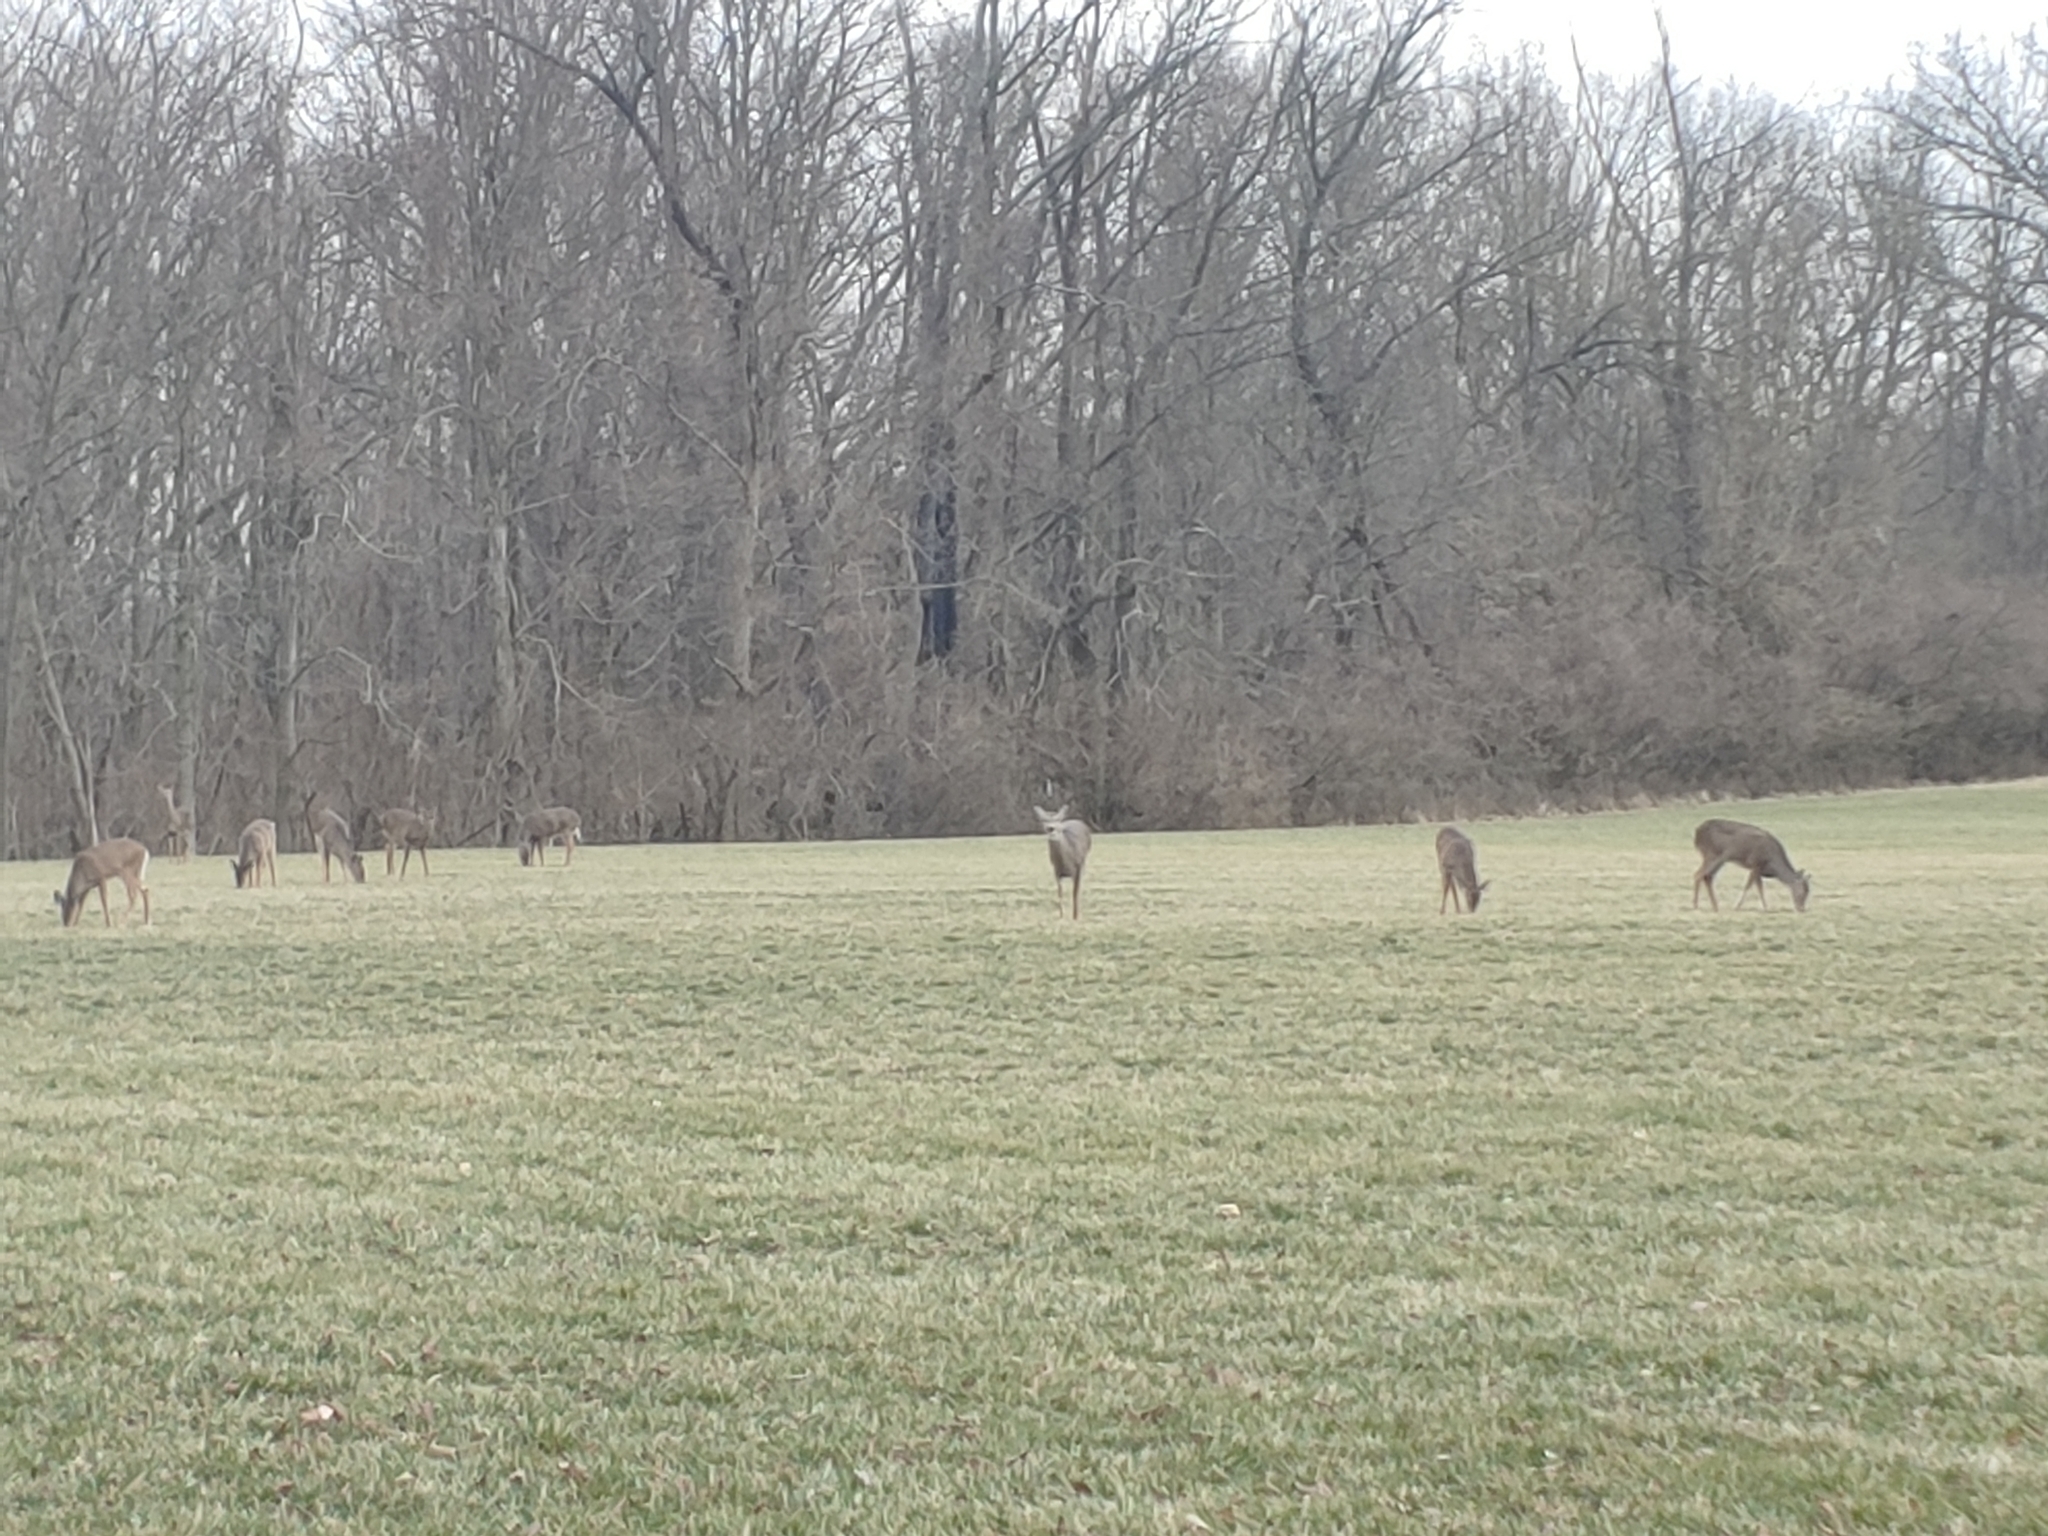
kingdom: Animalia
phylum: Chordata
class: Mammalia
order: Artiodactyla
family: Cervidae
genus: Odocoileus
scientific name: Odocoileus virginianus
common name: White-tailed deer
